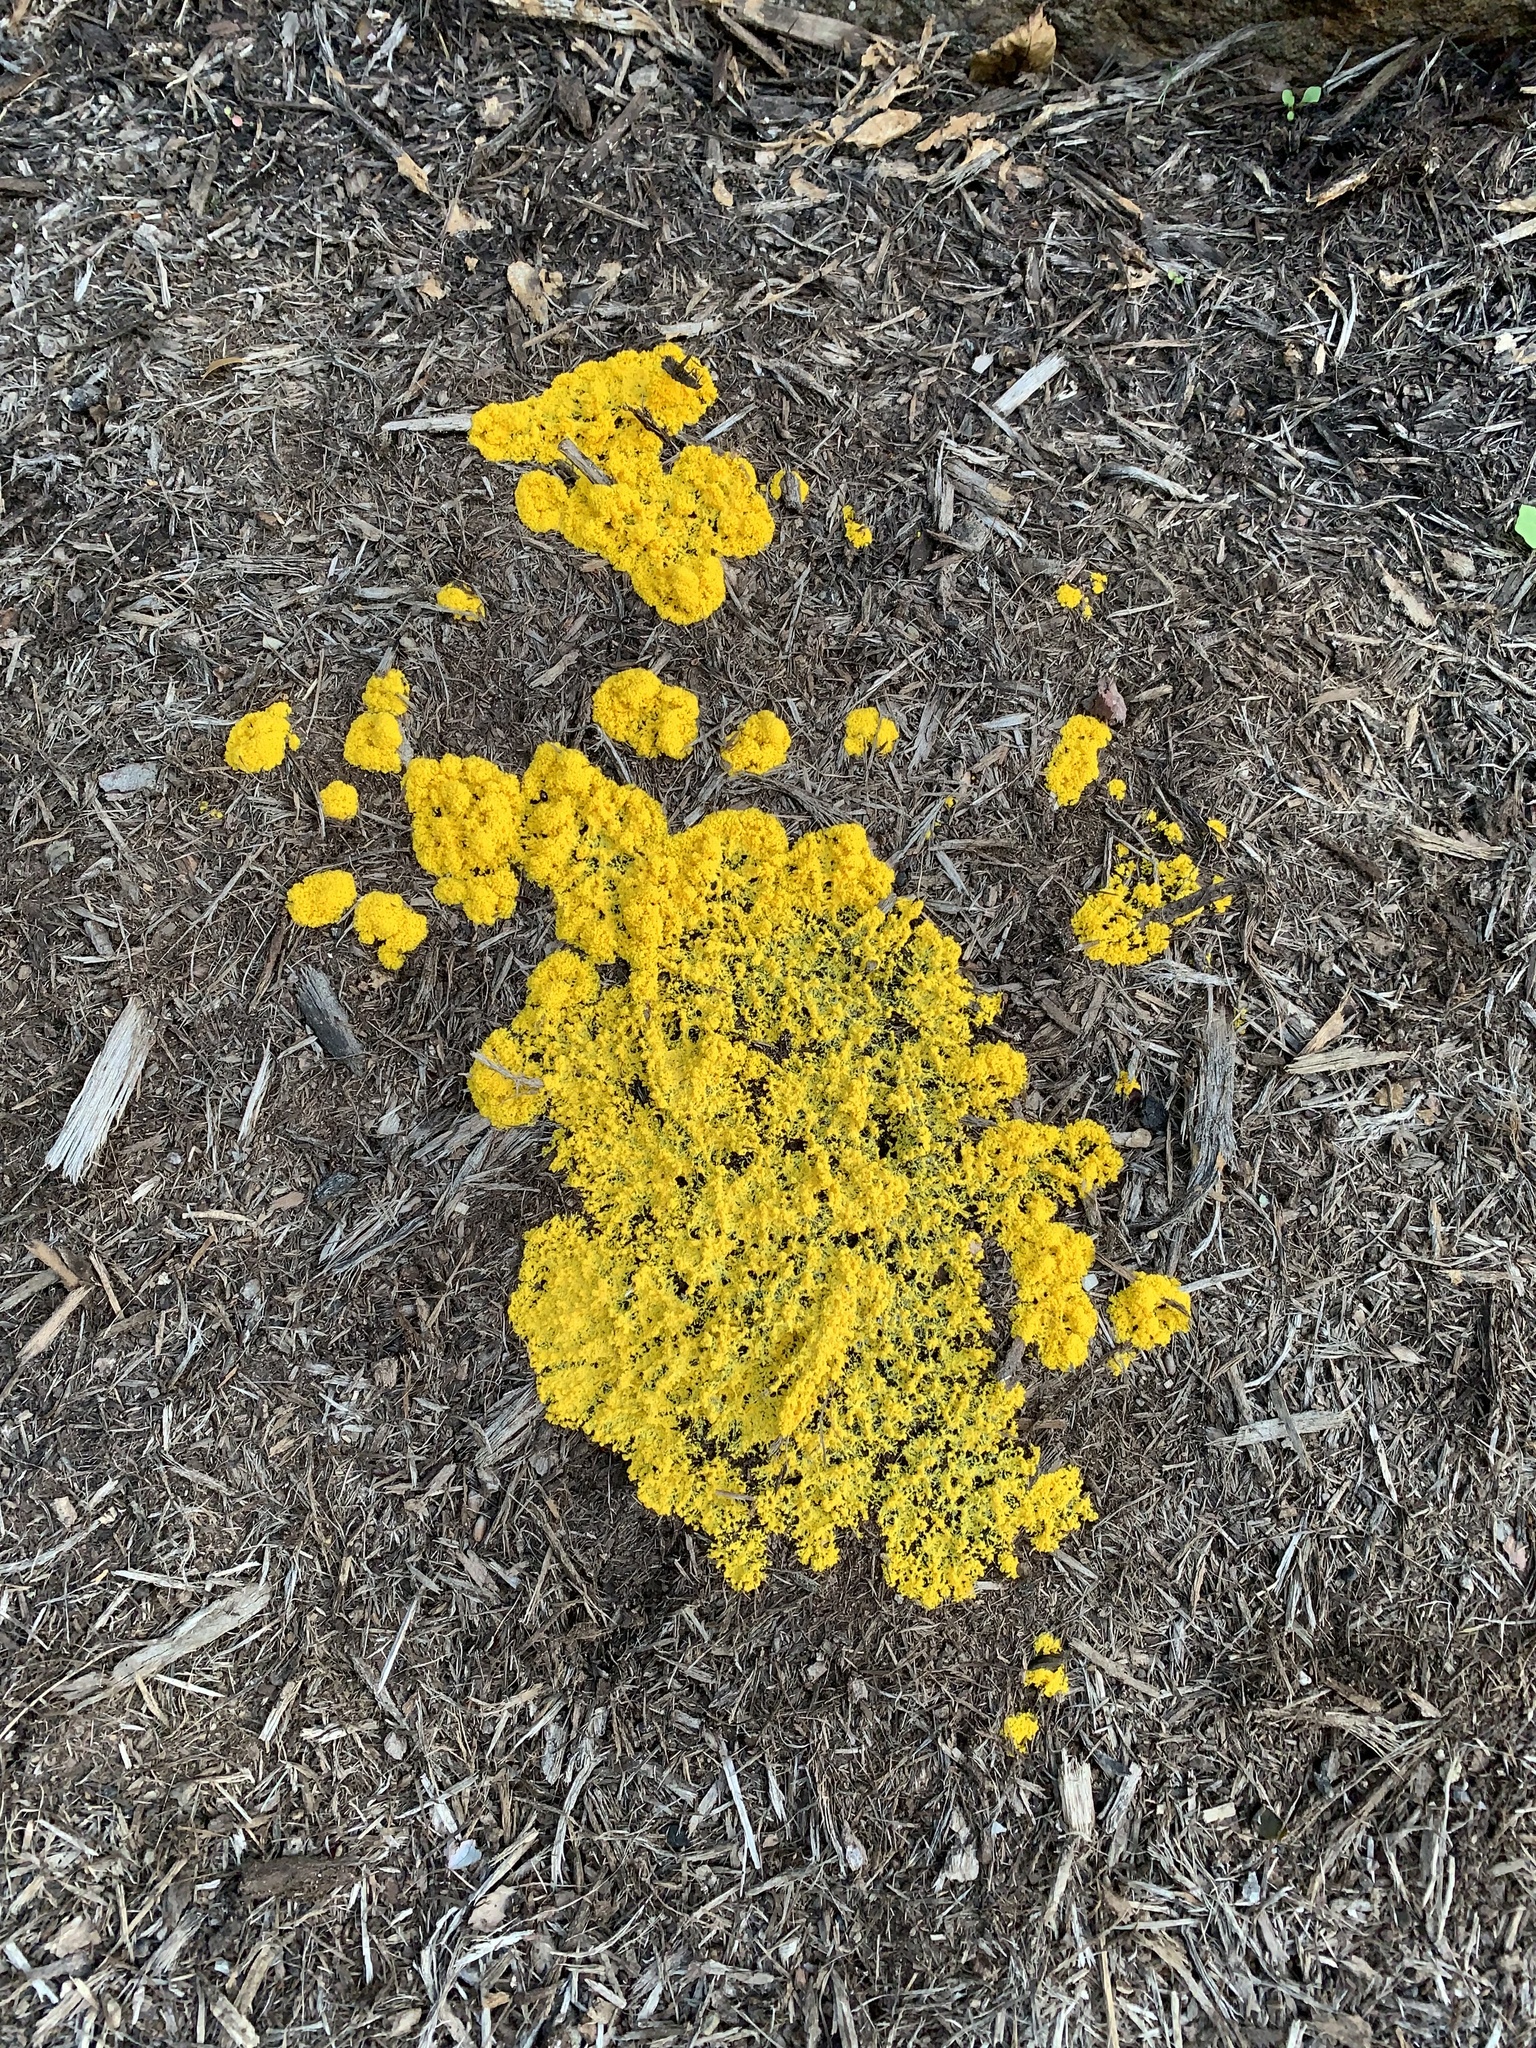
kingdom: Protozoa
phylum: Mycetozoa
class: Myxomycetes
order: Physarales
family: Physaraceae
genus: Fuligo
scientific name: Fuligo septica
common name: Dog vomit slime mold
